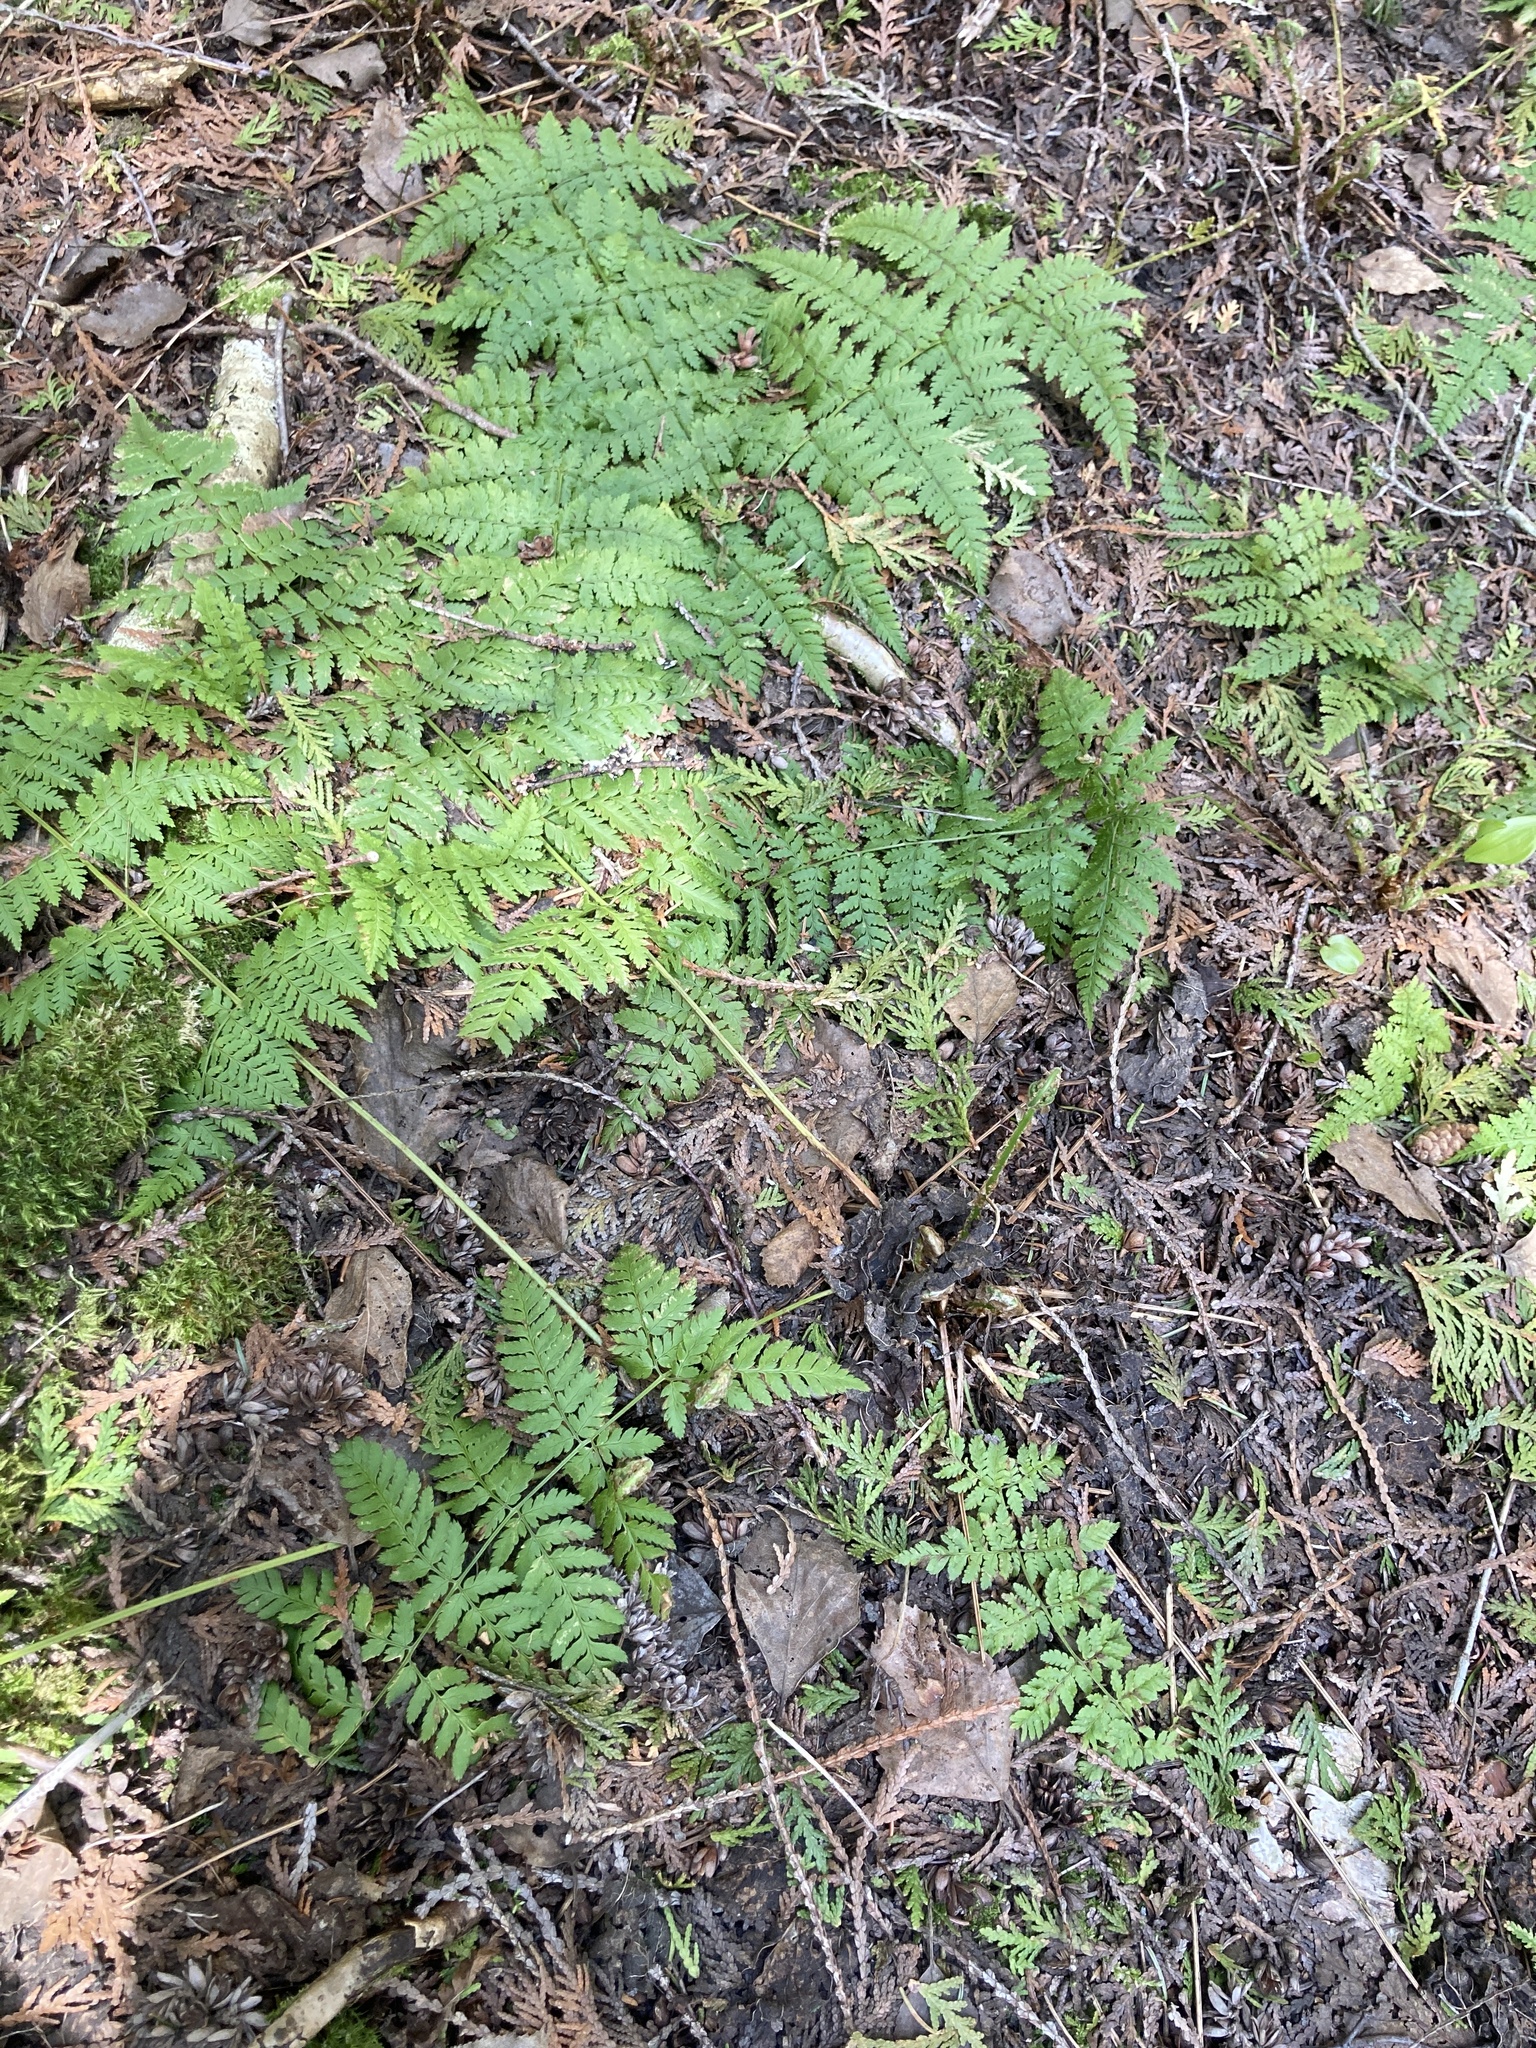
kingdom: Plantae
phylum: Tracheophyta
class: Polypodiopsida
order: Polypodiales
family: Dryopteridaceae
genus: Dryopteris
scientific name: Dryopteris intermedia
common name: Evergreen wood fern
